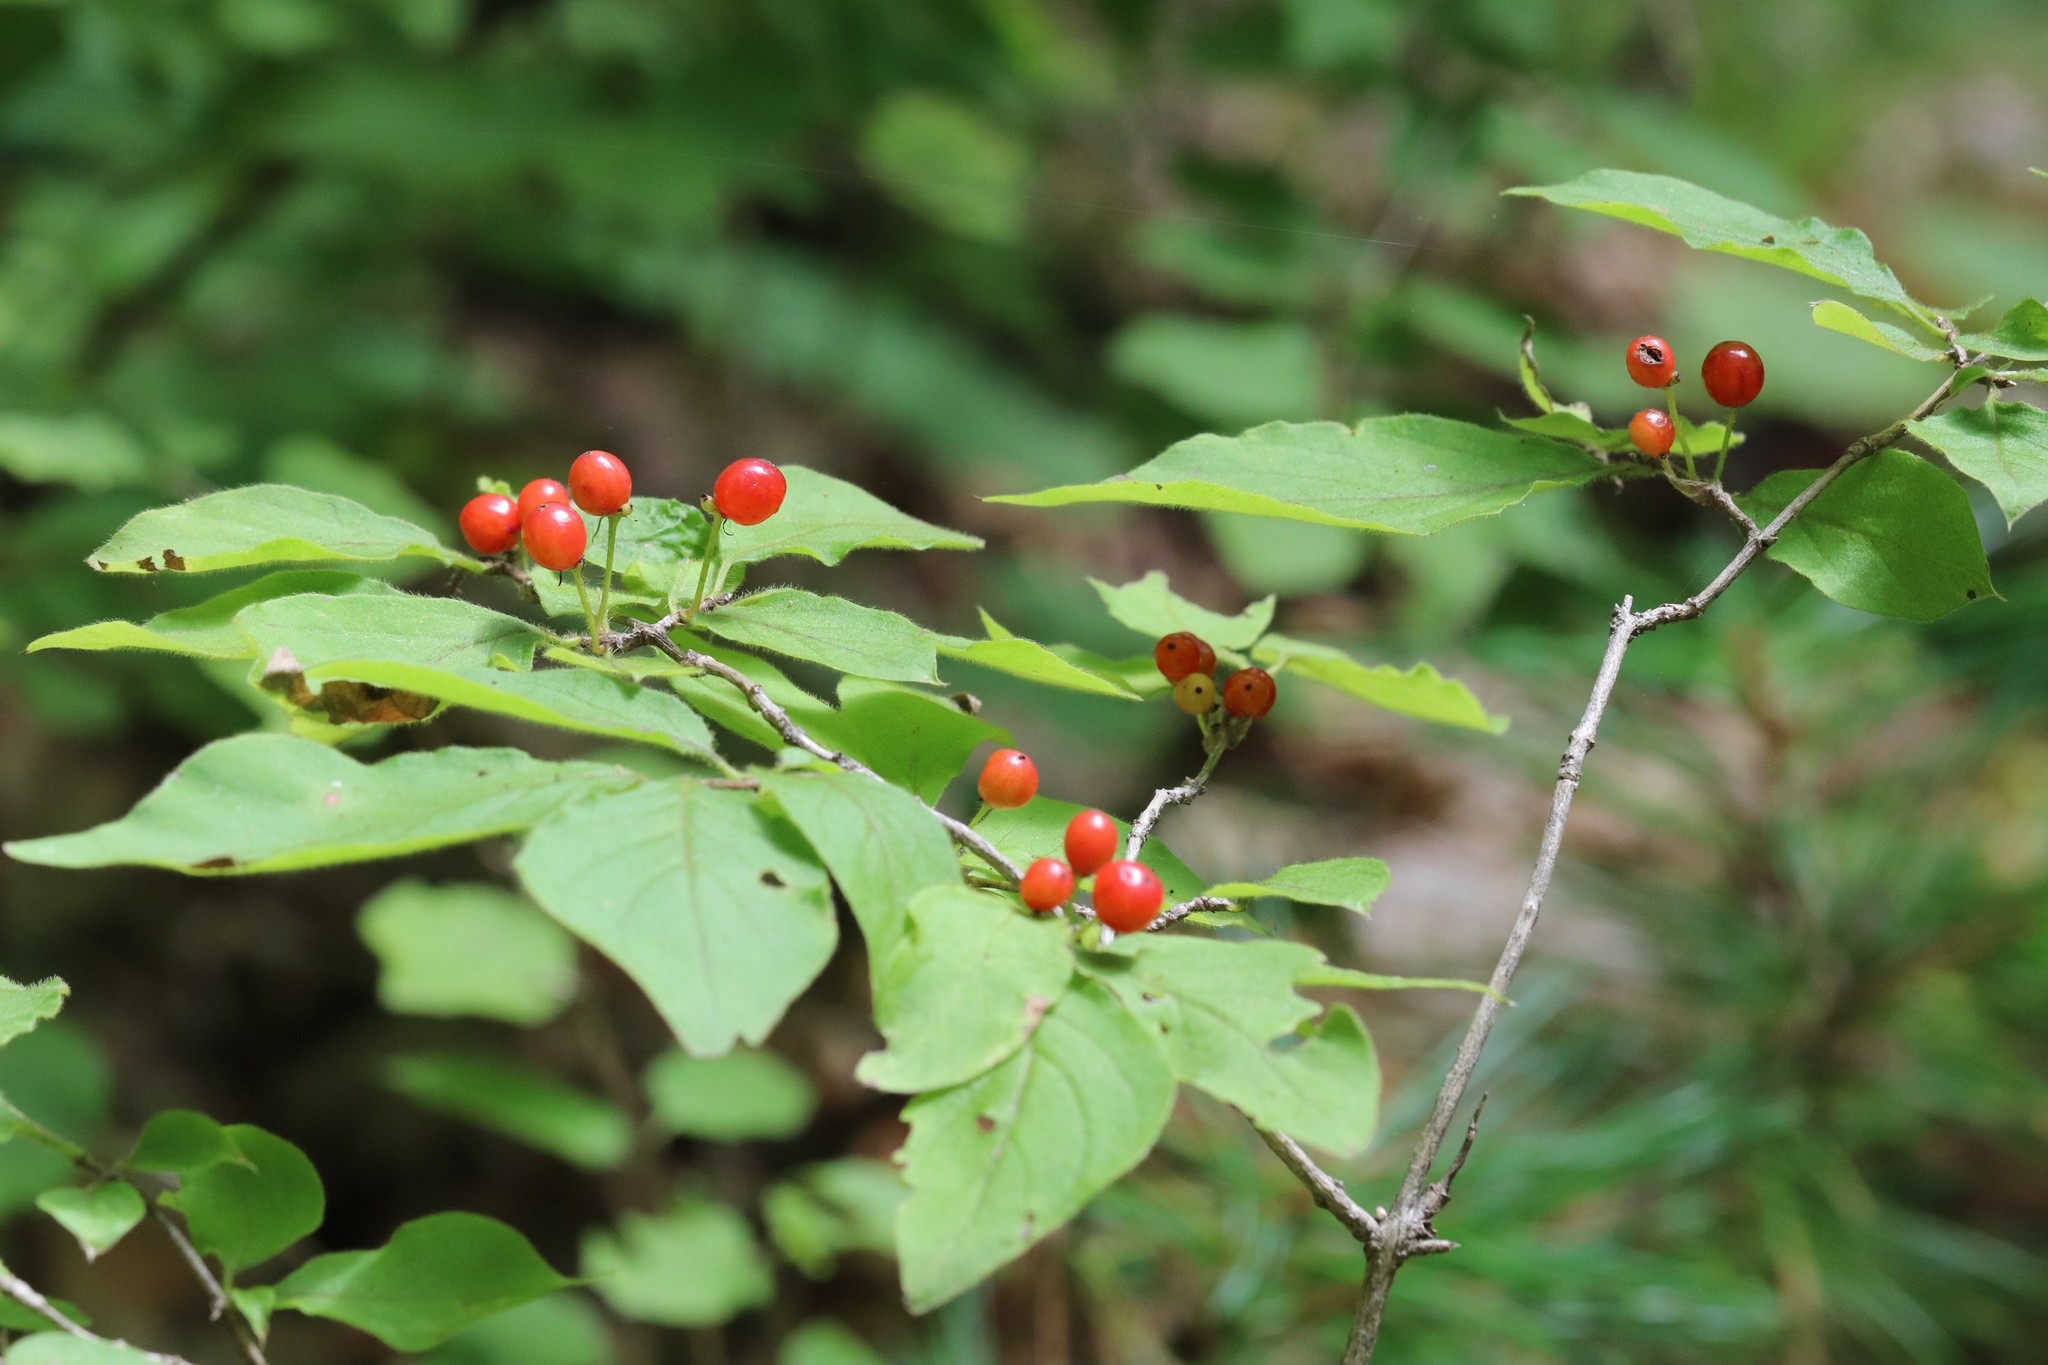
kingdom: Plantae
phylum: Tracheophyta
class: Magnoliopsida
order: Dipsacales
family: Caprifoliaceae
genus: Lonicera
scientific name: Lonicera chrysantha
